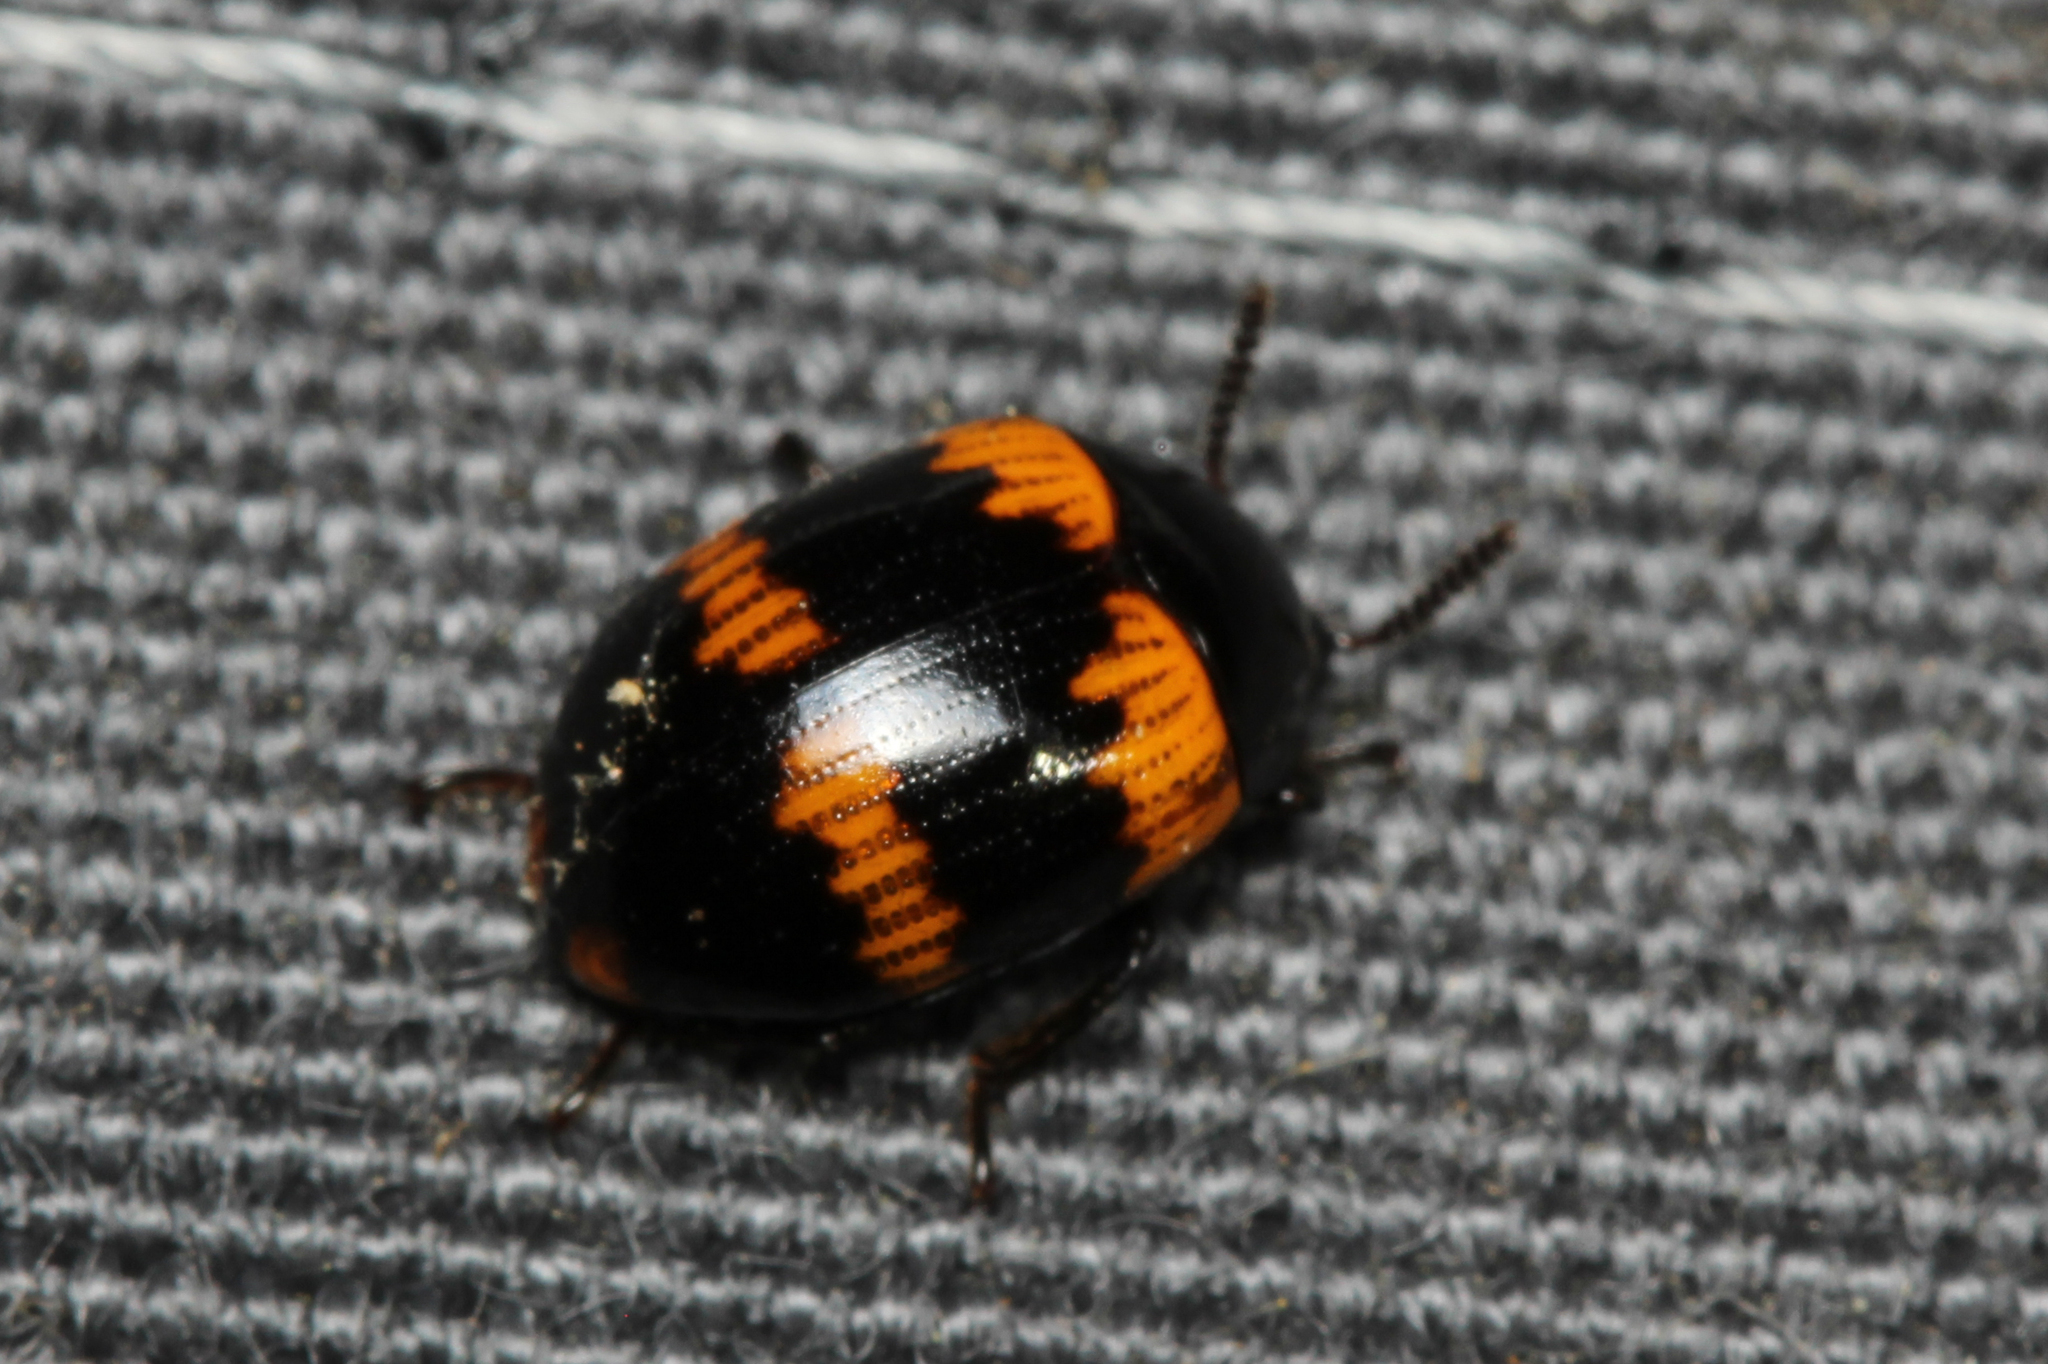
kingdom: Animalia
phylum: Arthropoda
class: Insecta
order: Coleoptera
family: Tenebrionidae
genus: Diaperis
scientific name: Diaperis boleti
